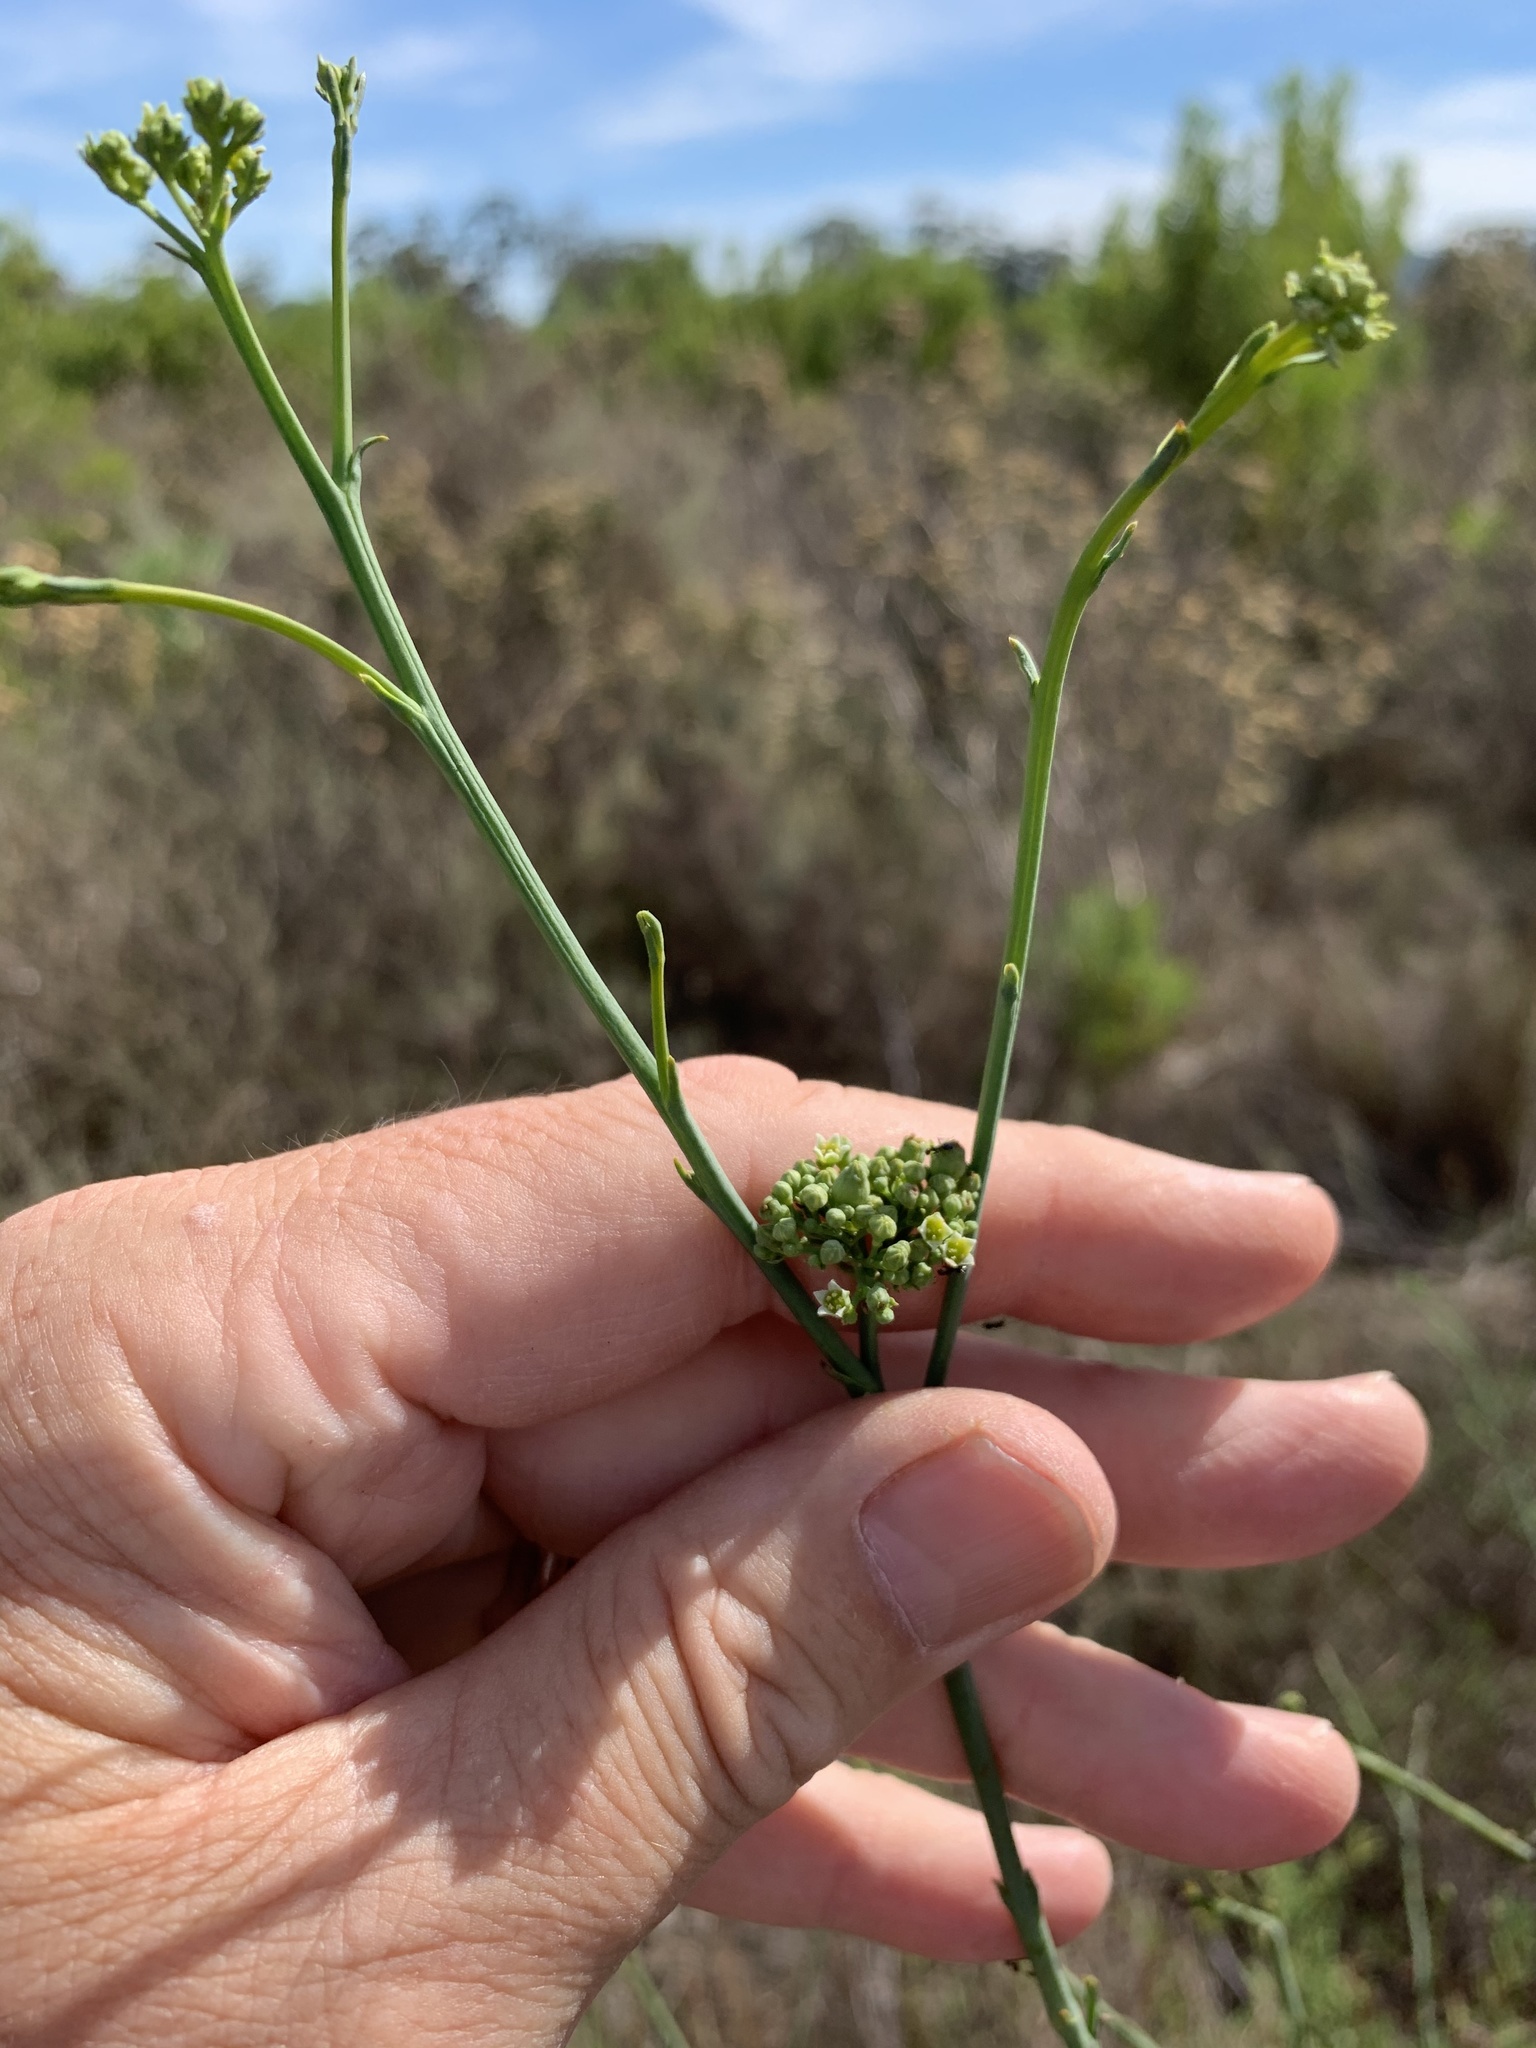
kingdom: Plantae
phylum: Tracheophyta
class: Magnoliopsida
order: Santalales
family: Thesiaceae
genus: Thesium
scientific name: Thesium strictum
